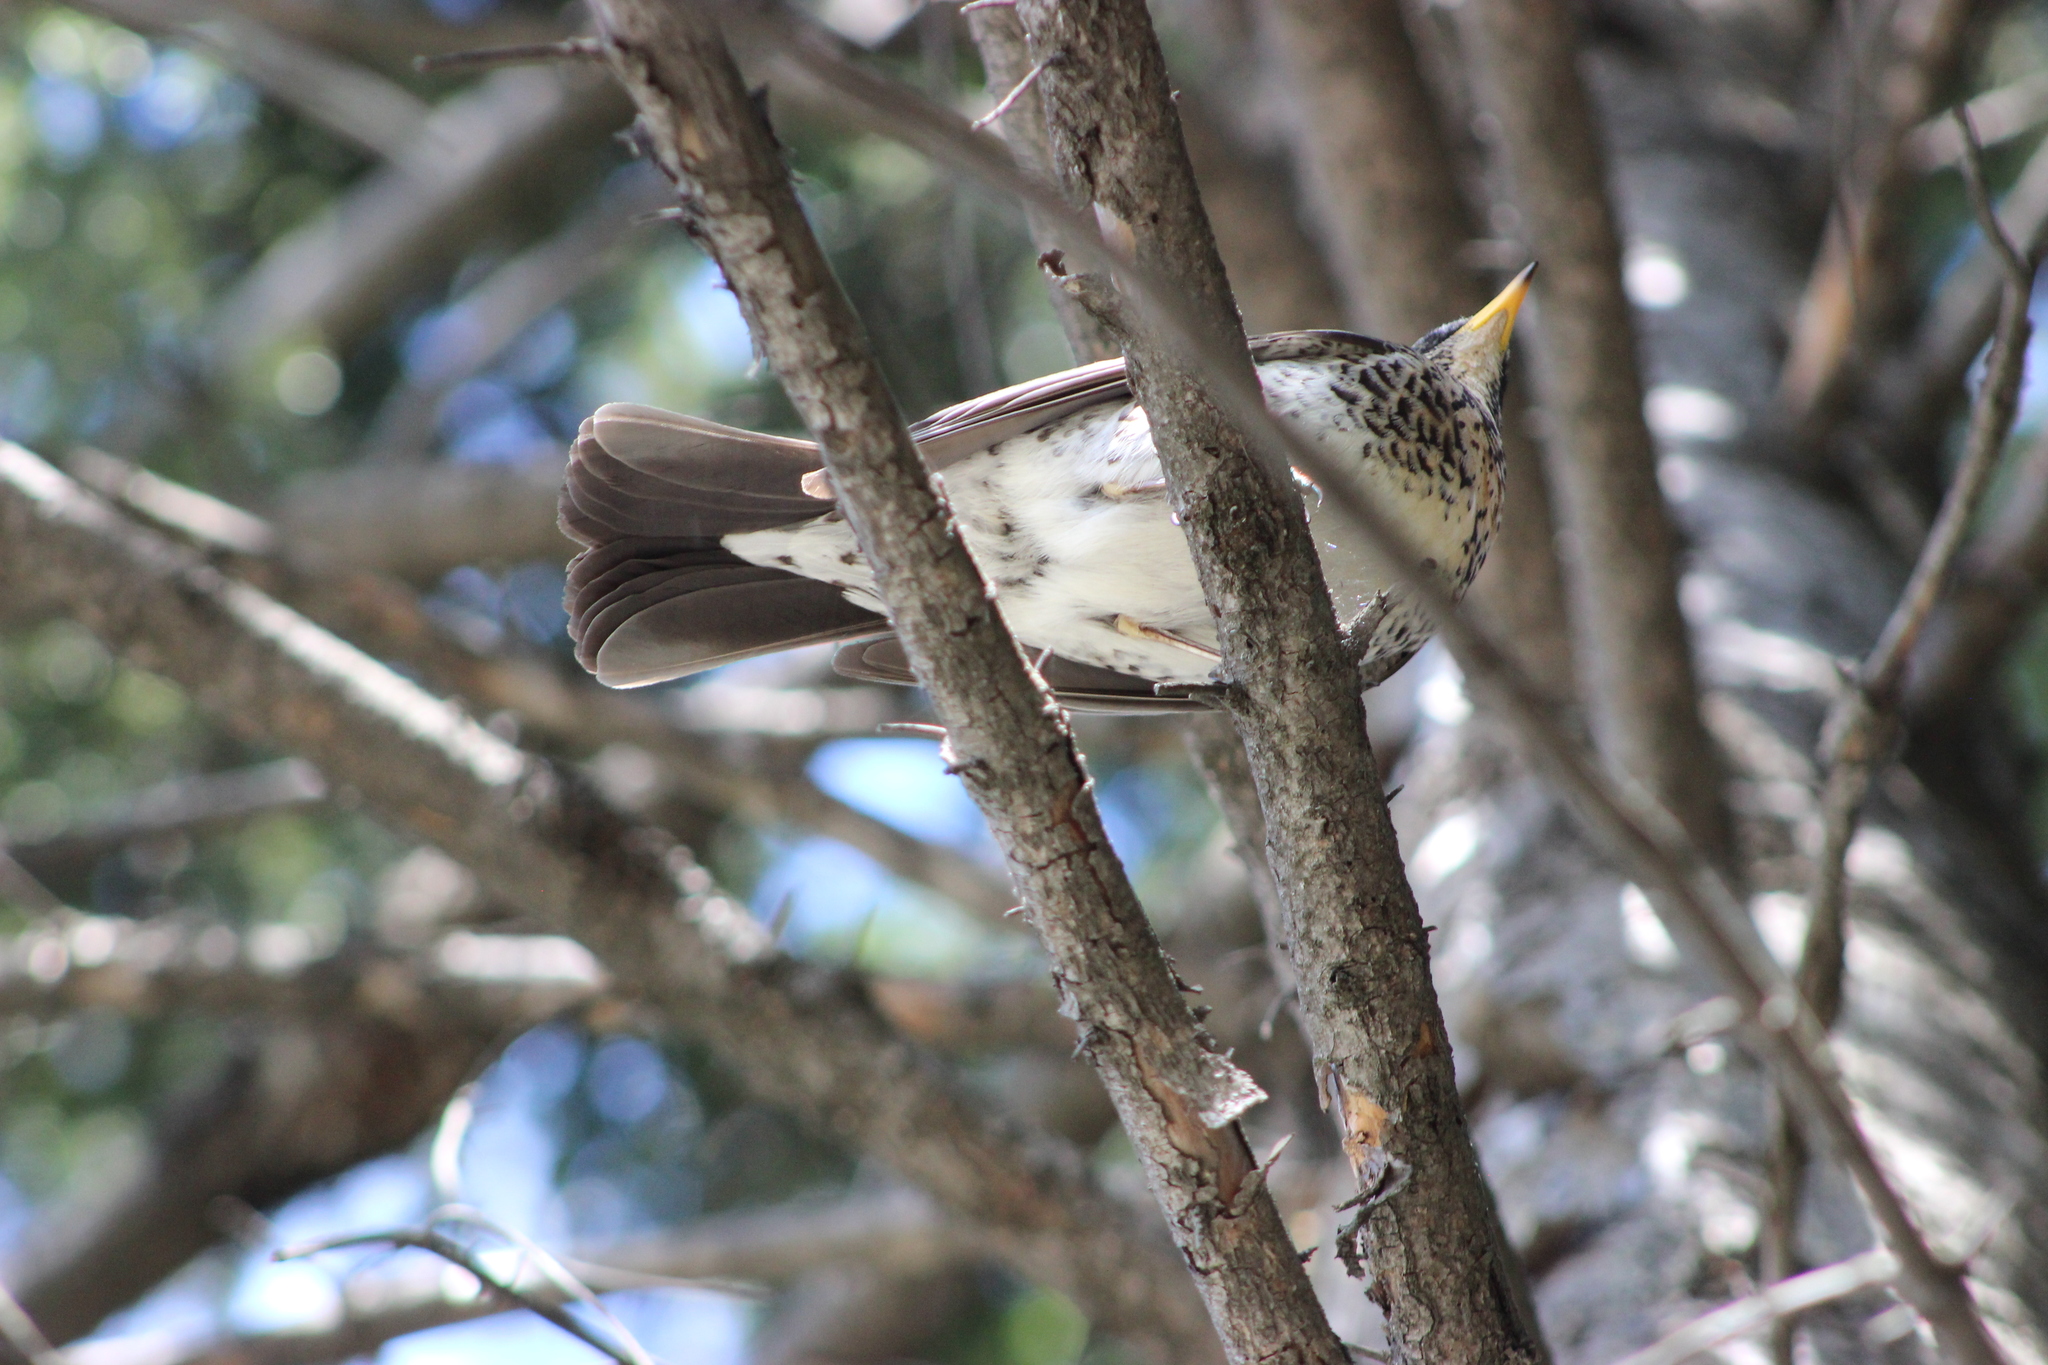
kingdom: Animalia
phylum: Chordata
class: Aves
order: Passeriformes
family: Turdidae
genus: Turdus
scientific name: Turdus pilaris
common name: Fieldfare
